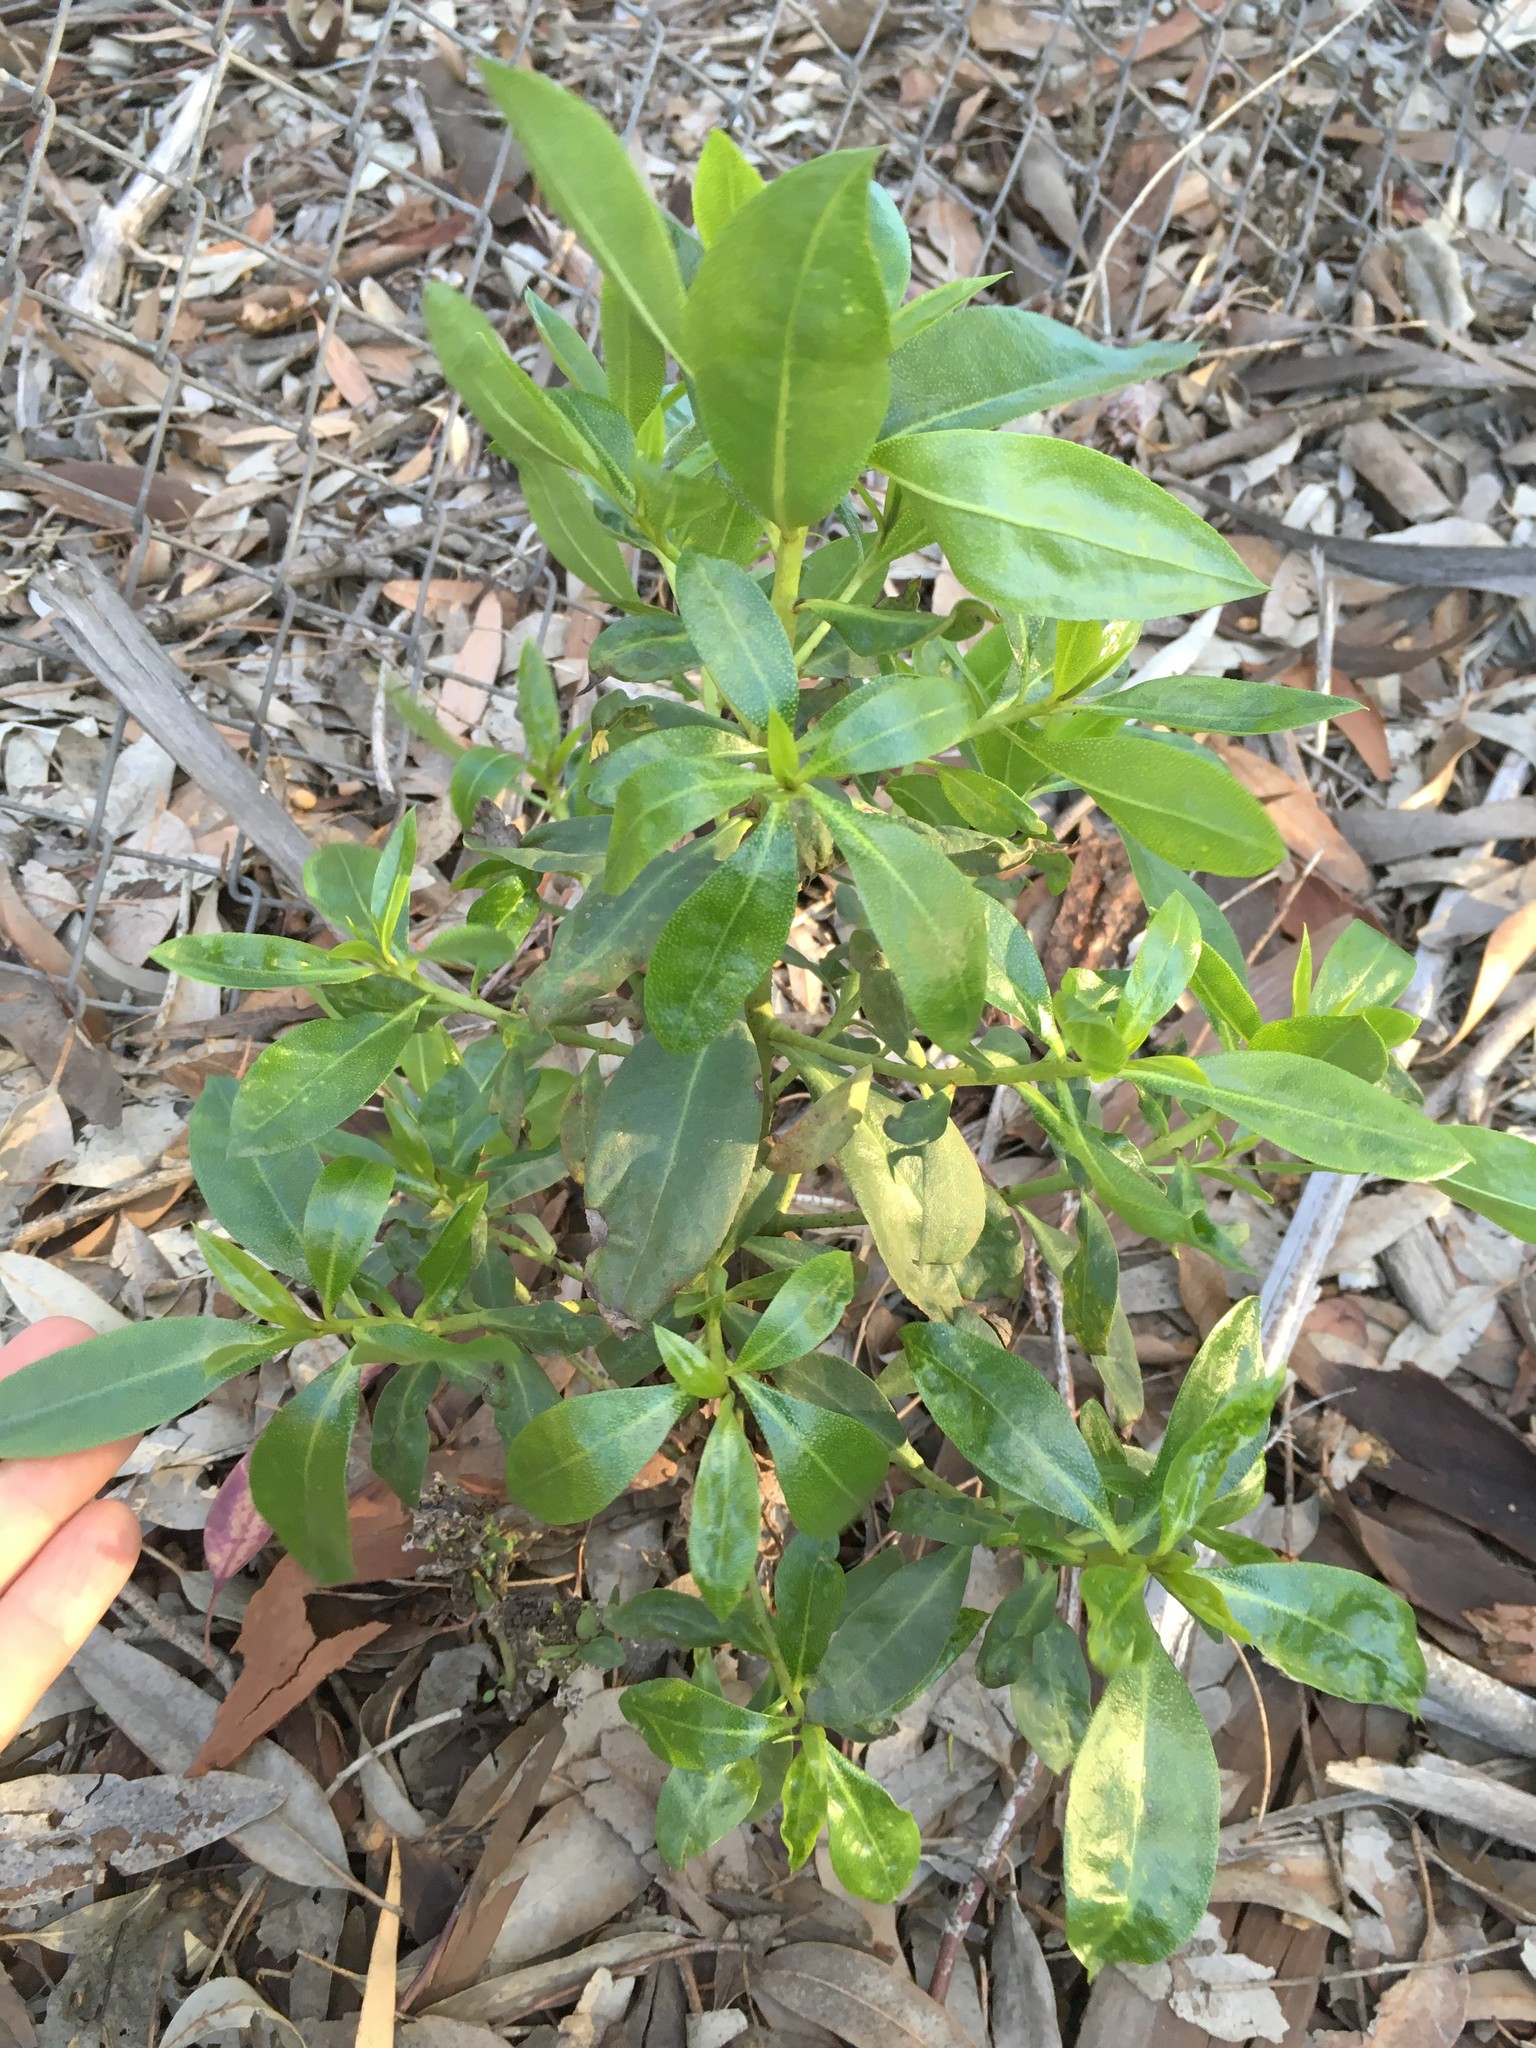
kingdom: Plantae
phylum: Tracheophyta
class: Magnoliopsida
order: Lamiales
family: Scrophulariaceae
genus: Myoporum
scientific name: Myoporum laetum
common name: Ngaio tree
